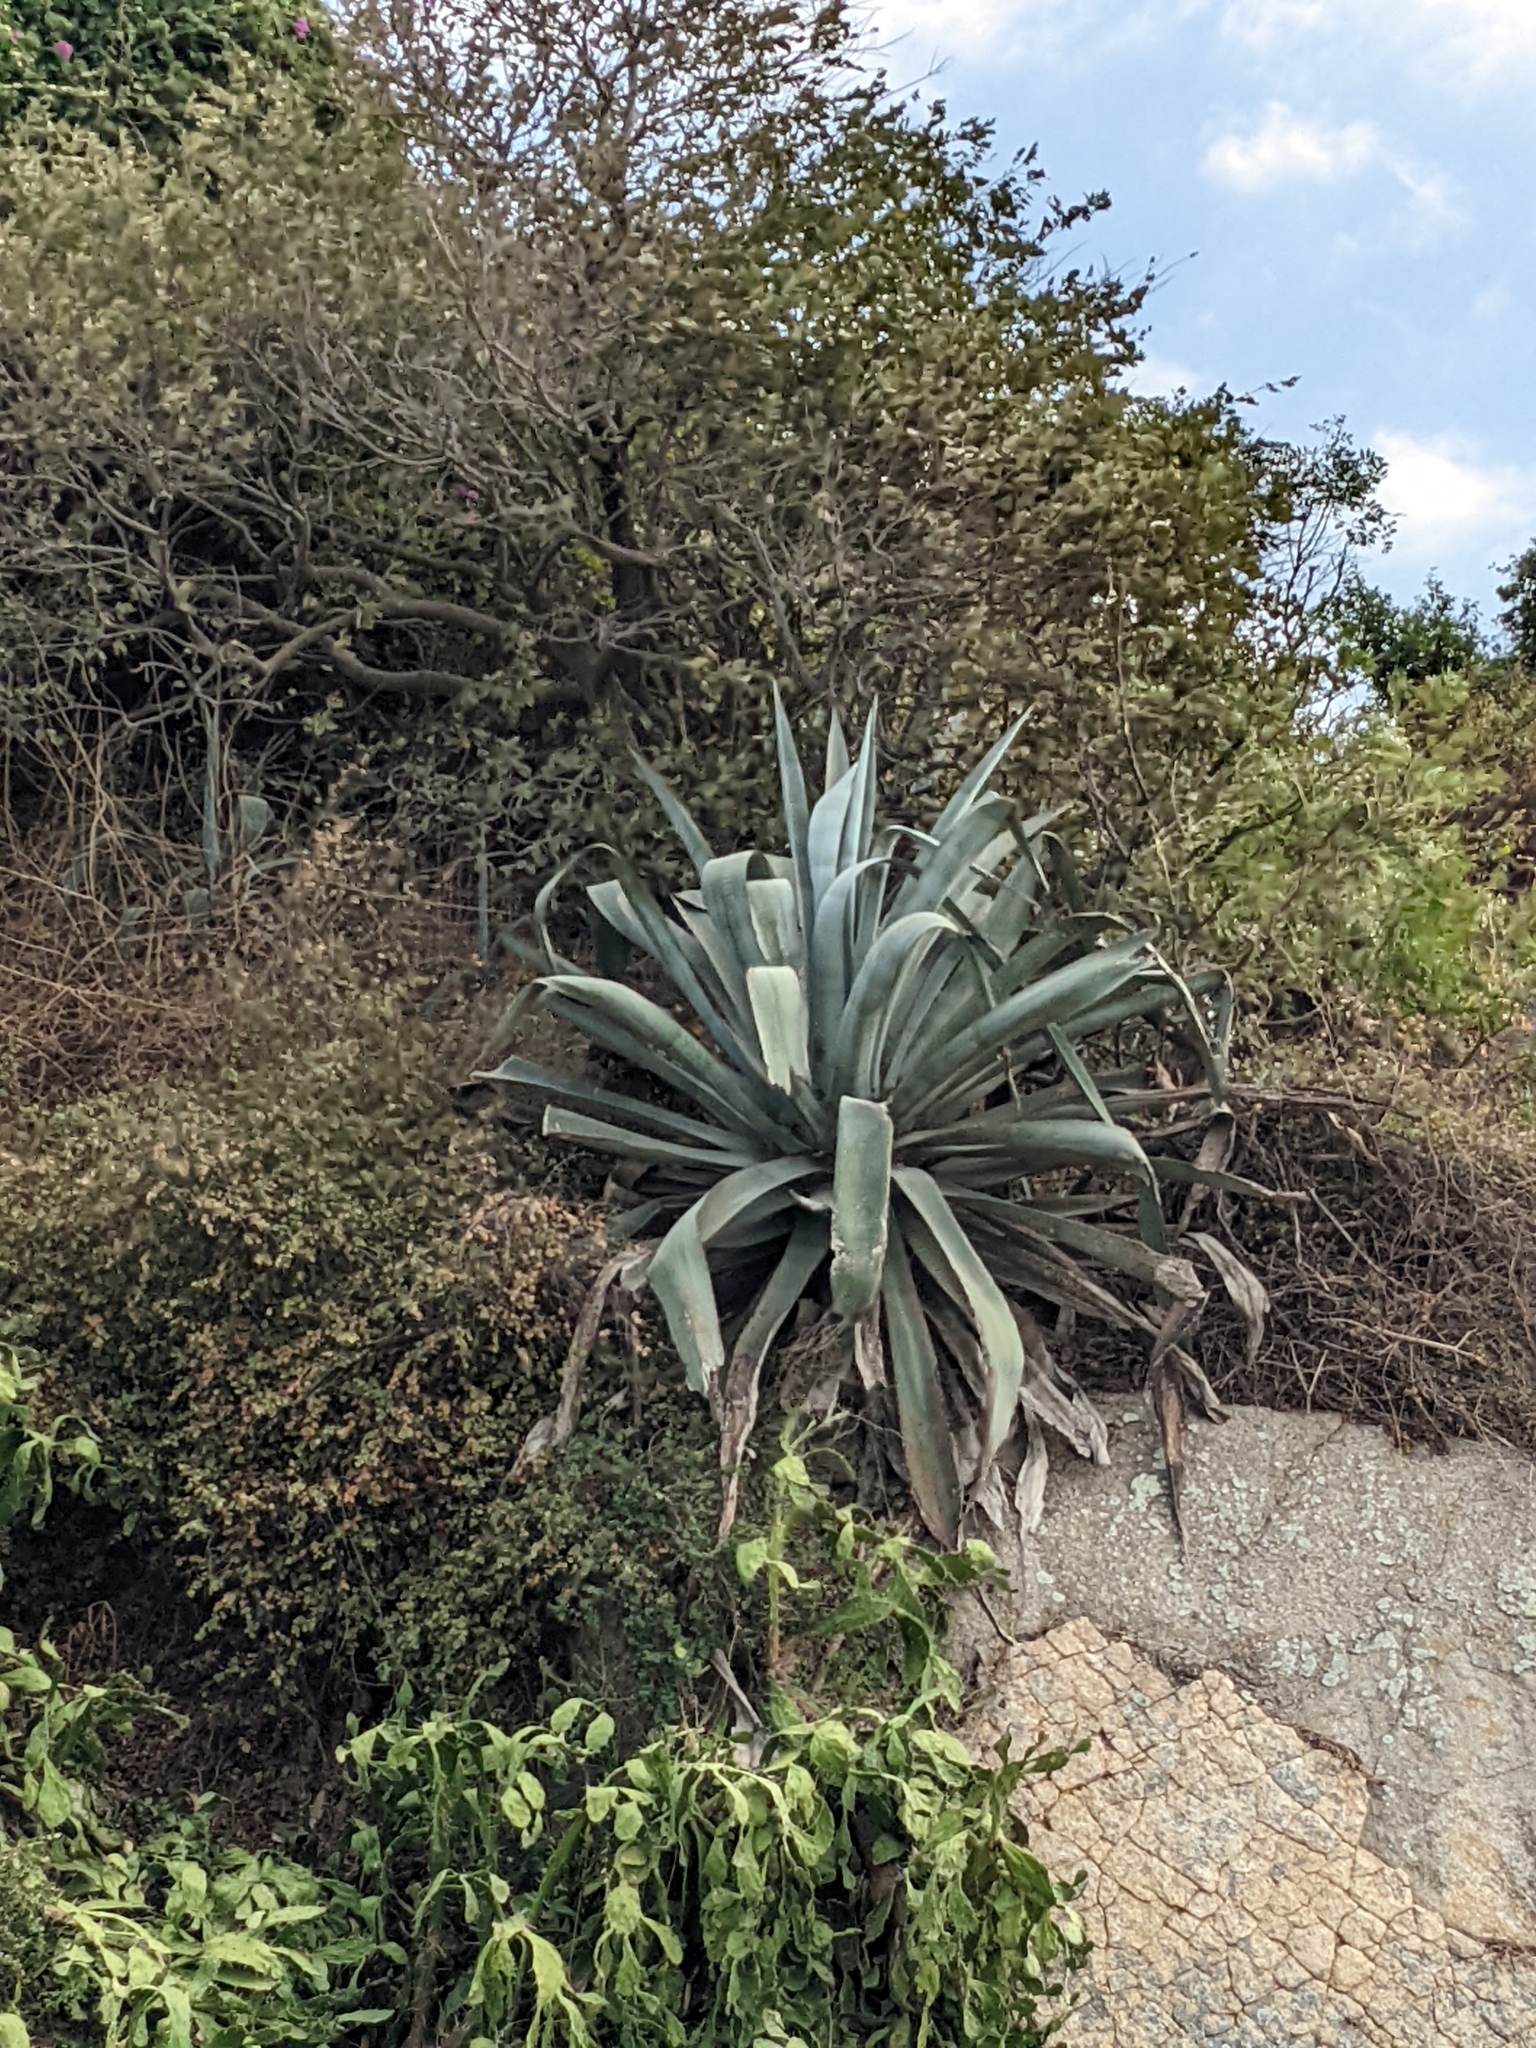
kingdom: Plantae
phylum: Tracheophyta
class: Liliopsida
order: Asparagales
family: Asparagaceae
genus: Agave
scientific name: Agave americana
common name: Centuryplant
